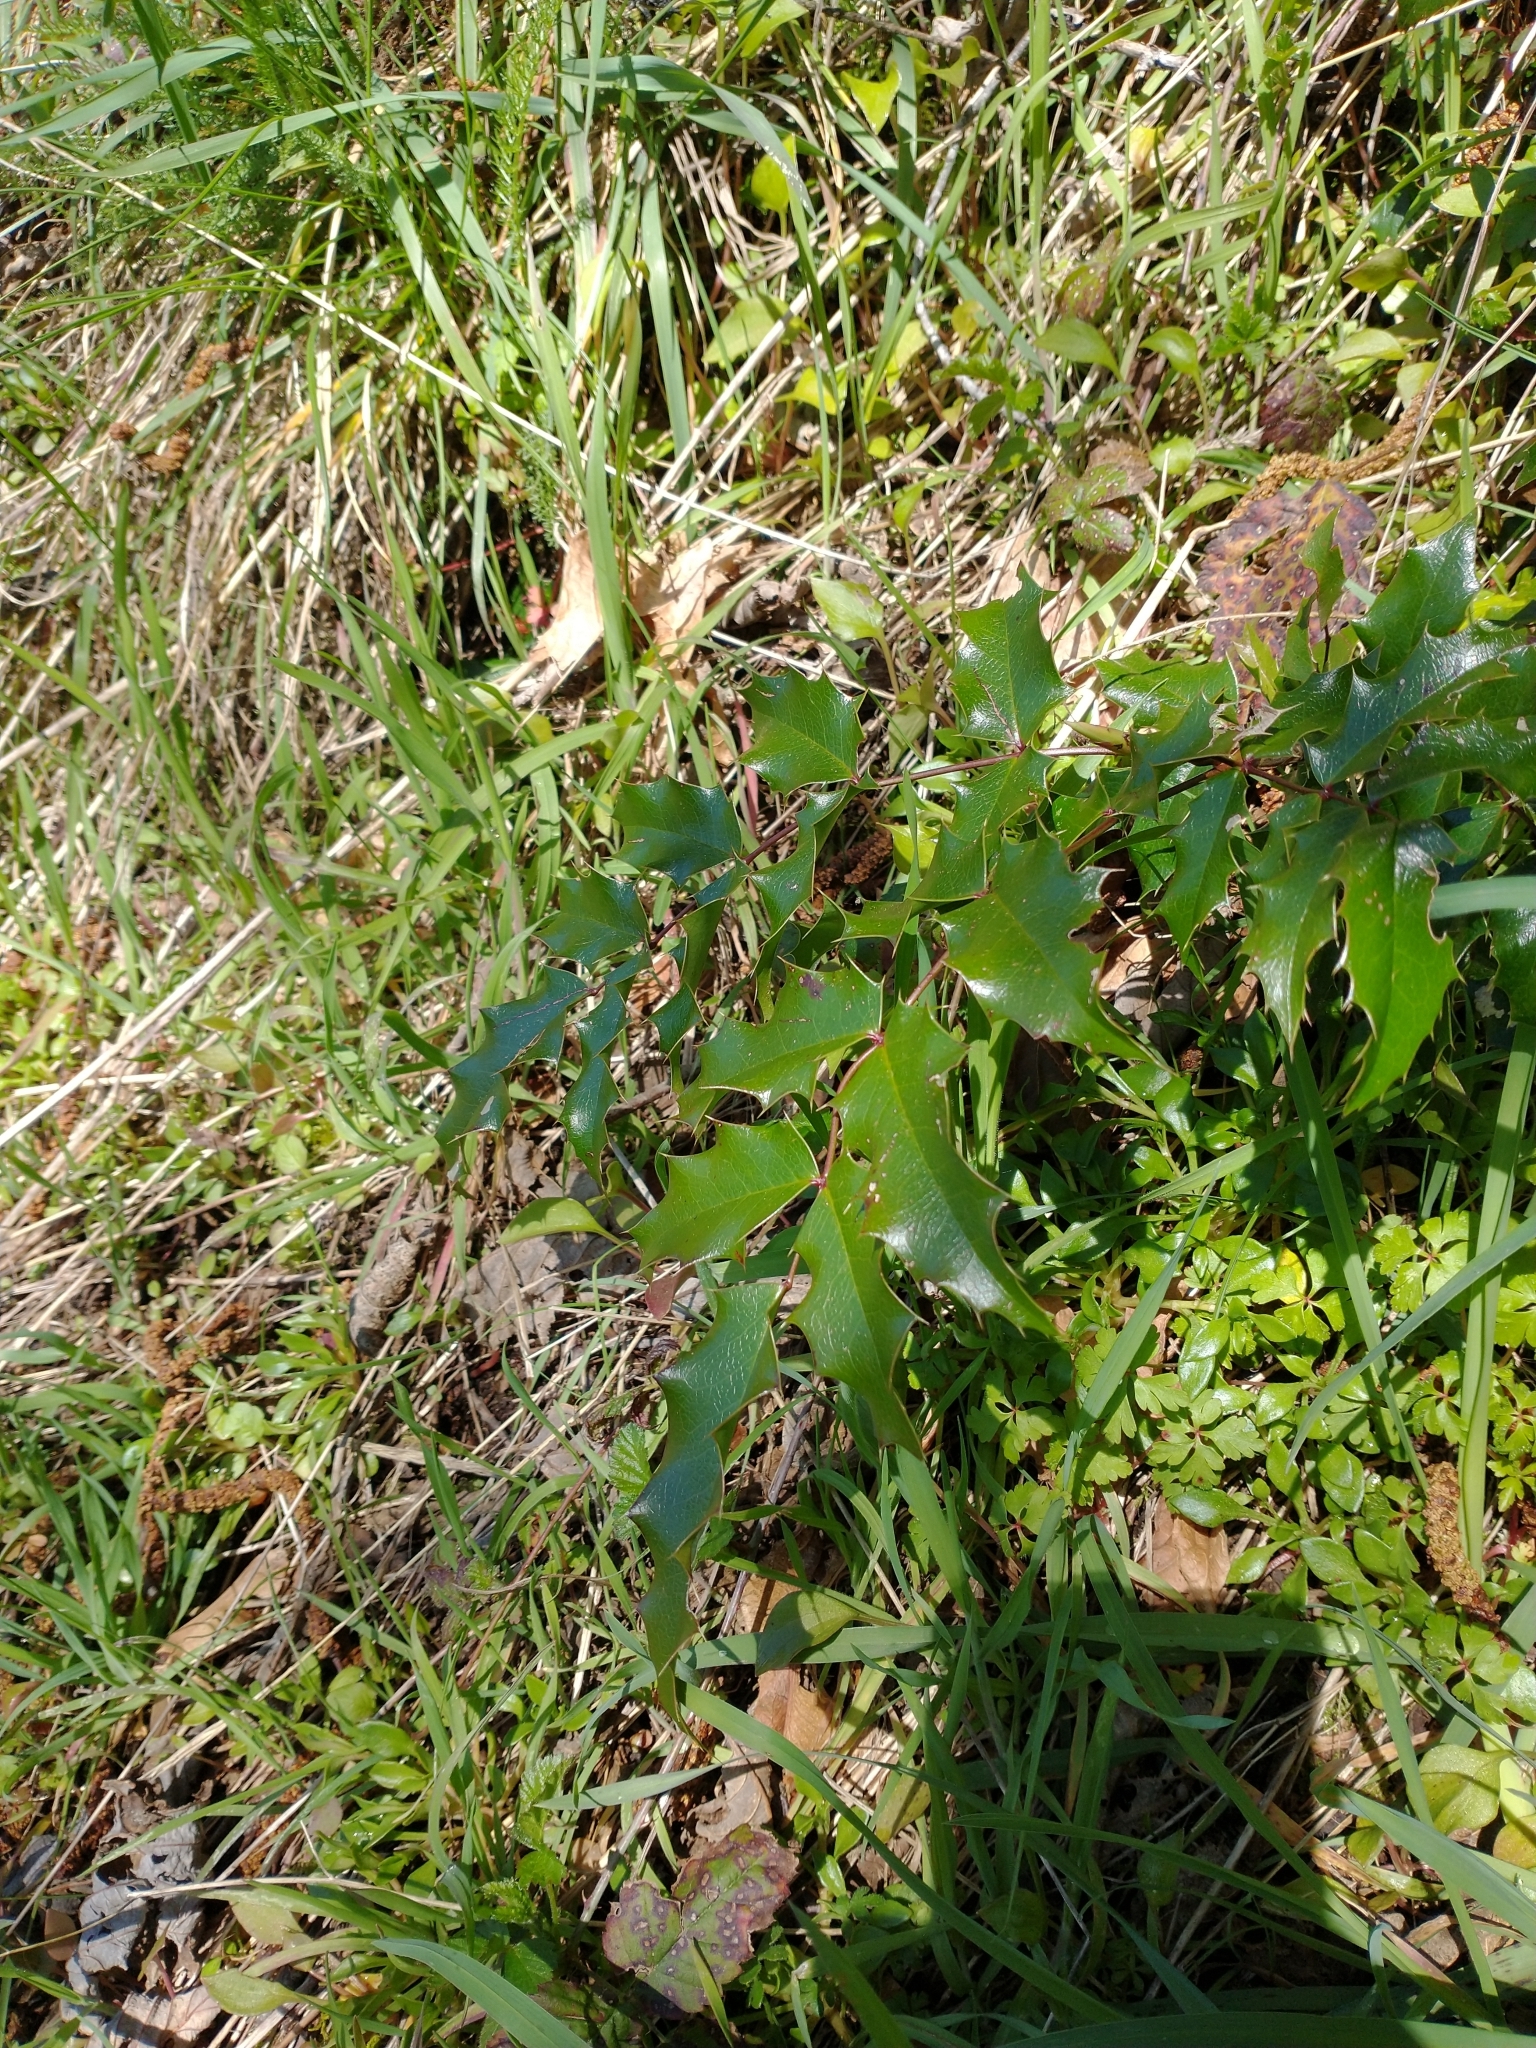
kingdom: Plantae
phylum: Tracheophyta
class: Magnoliopsida
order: Ranunculales
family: Berberidaceae
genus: Mahonia
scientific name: Mahonia aquifolium
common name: Oregon-grape
